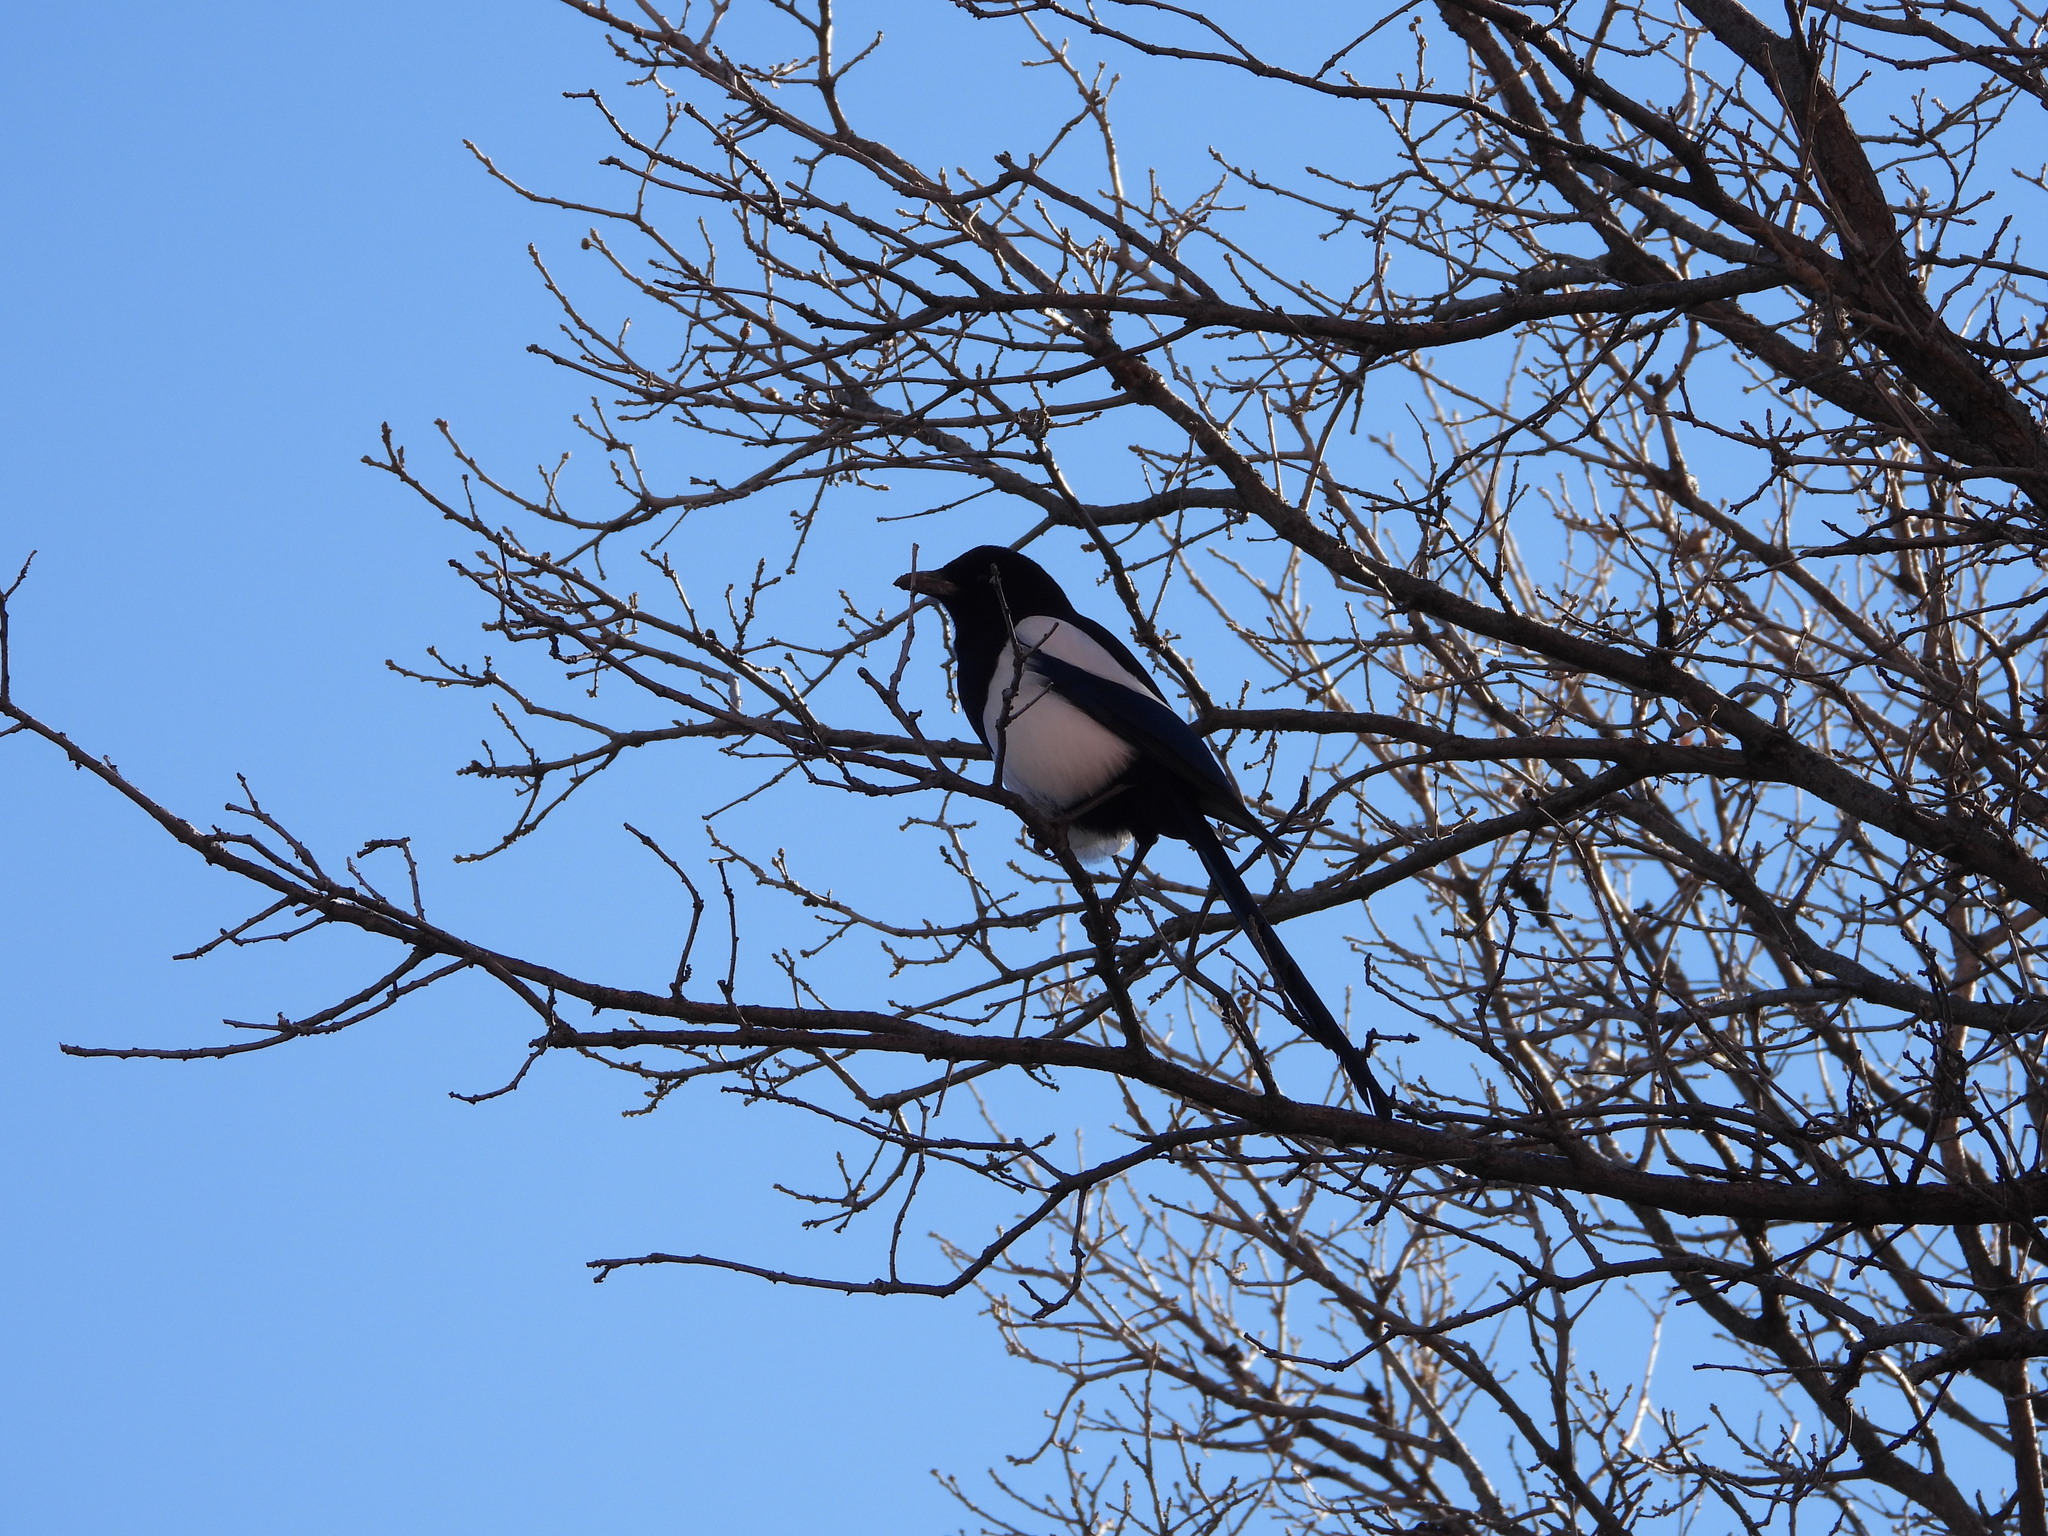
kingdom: Animalia
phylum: Chordata
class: Aves
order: Passeriformes
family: Corvidae
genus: Pica
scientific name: Pica hudsonia
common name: Black-billed magpie
